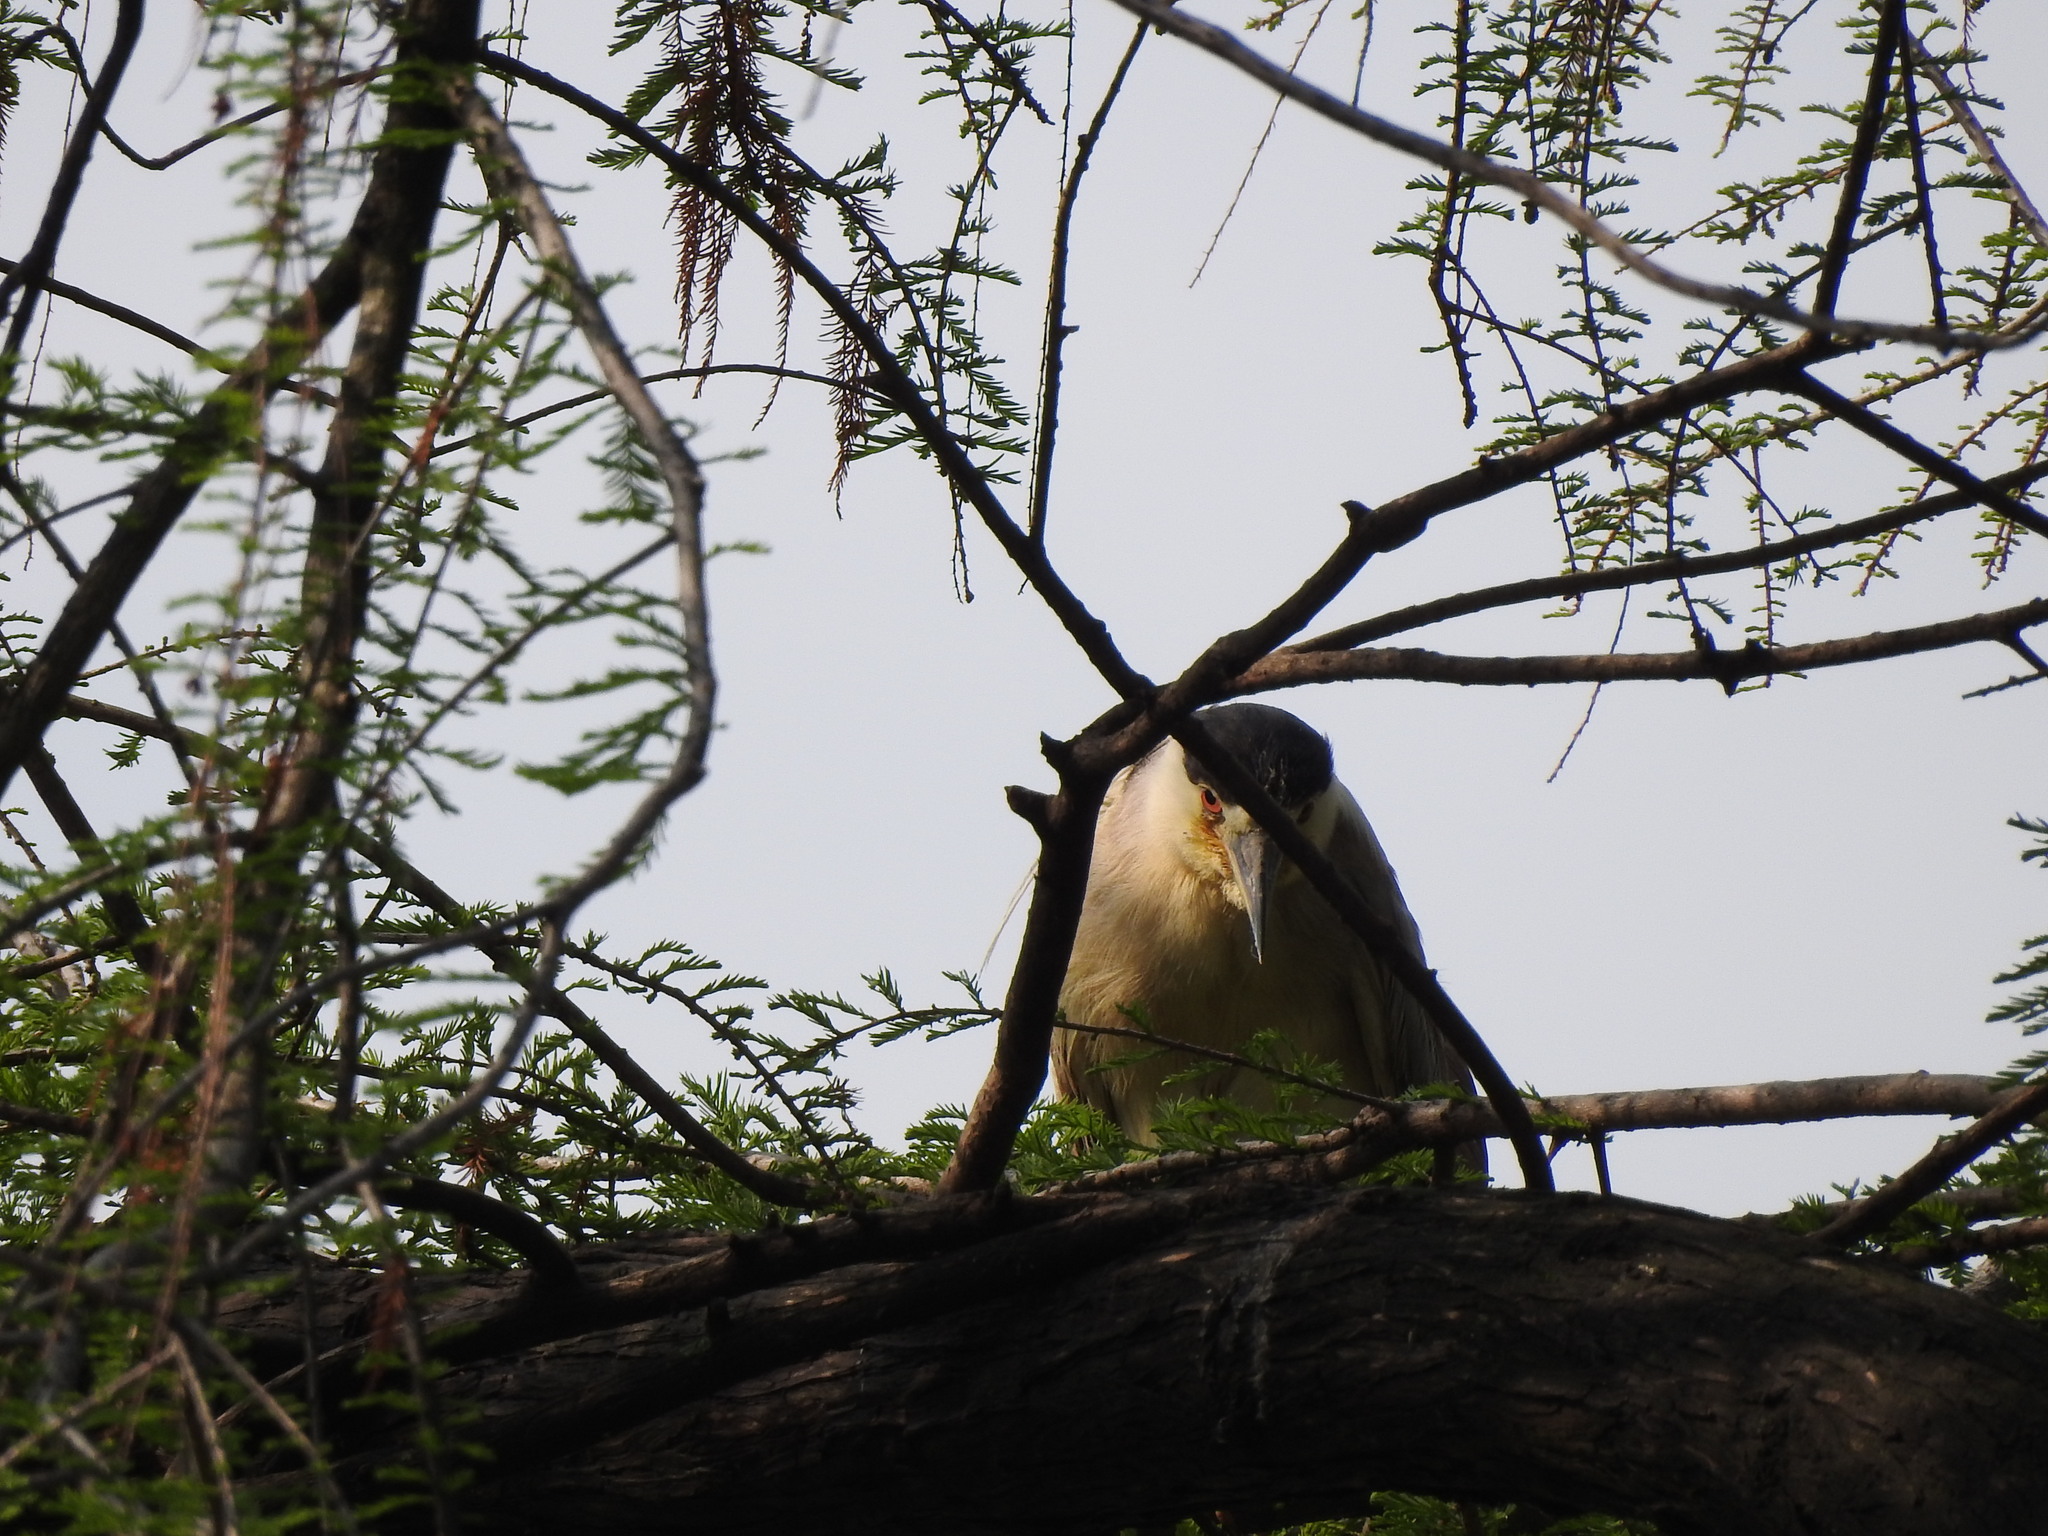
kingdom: Animalia
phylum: Chordata
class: Aves
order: Pelecaniformes
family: Ardeidae
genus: Nycticorax
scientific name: Nycticorax nycticorax
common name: Black-crowned night heron
